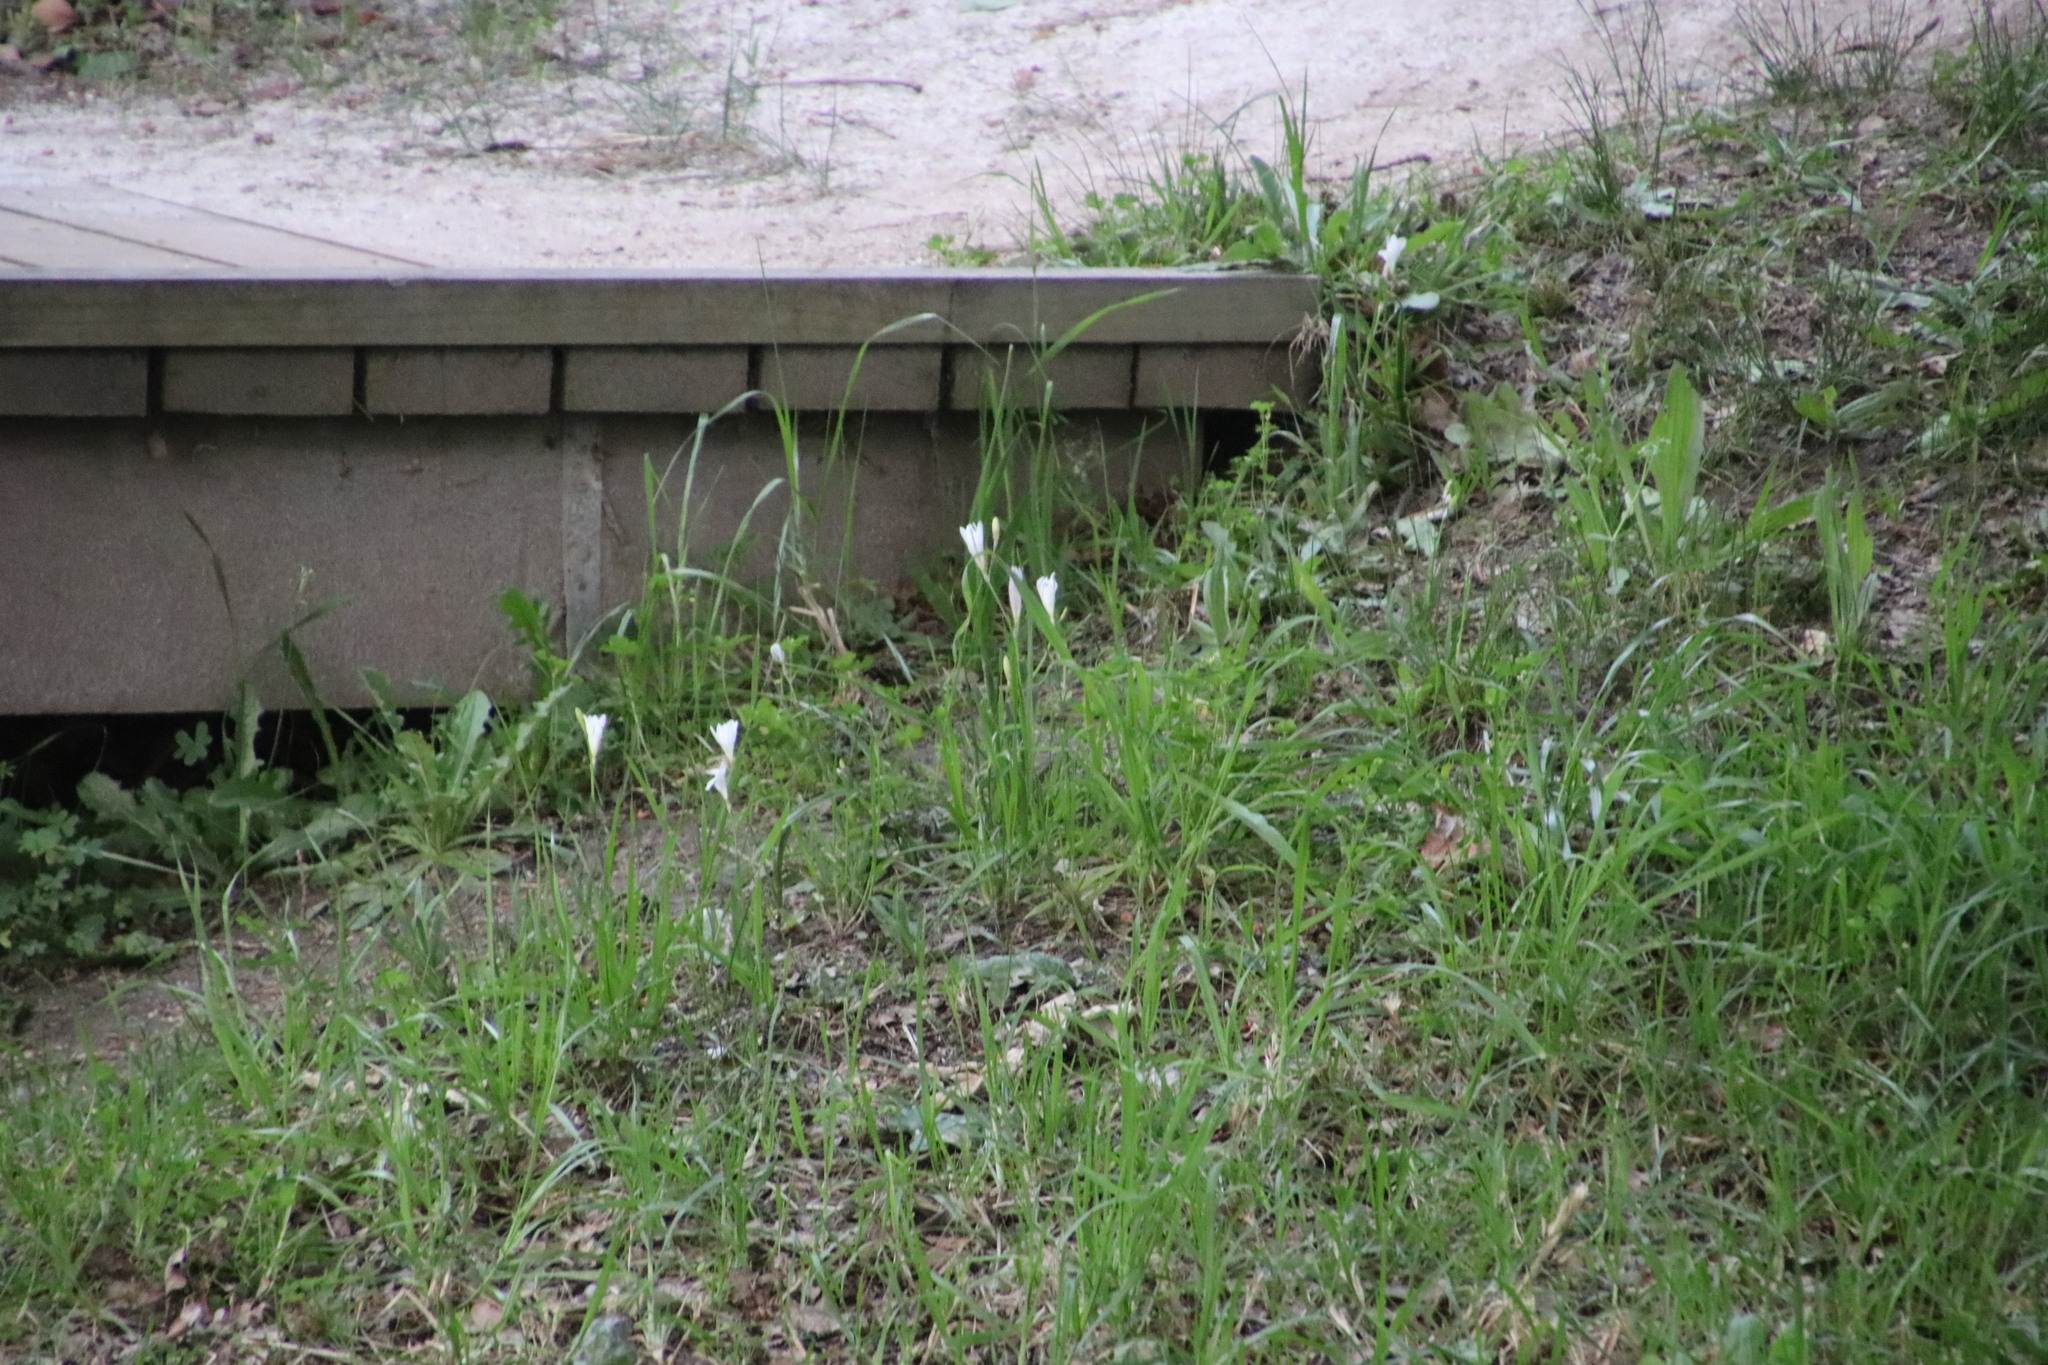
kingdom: Plantae
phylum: Tracheophyta
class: Liliopsida
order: Asparagales
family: Iridaceae
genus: Sparaxis
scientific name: Sparaxis bulbifera
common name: Harlequin-flower
